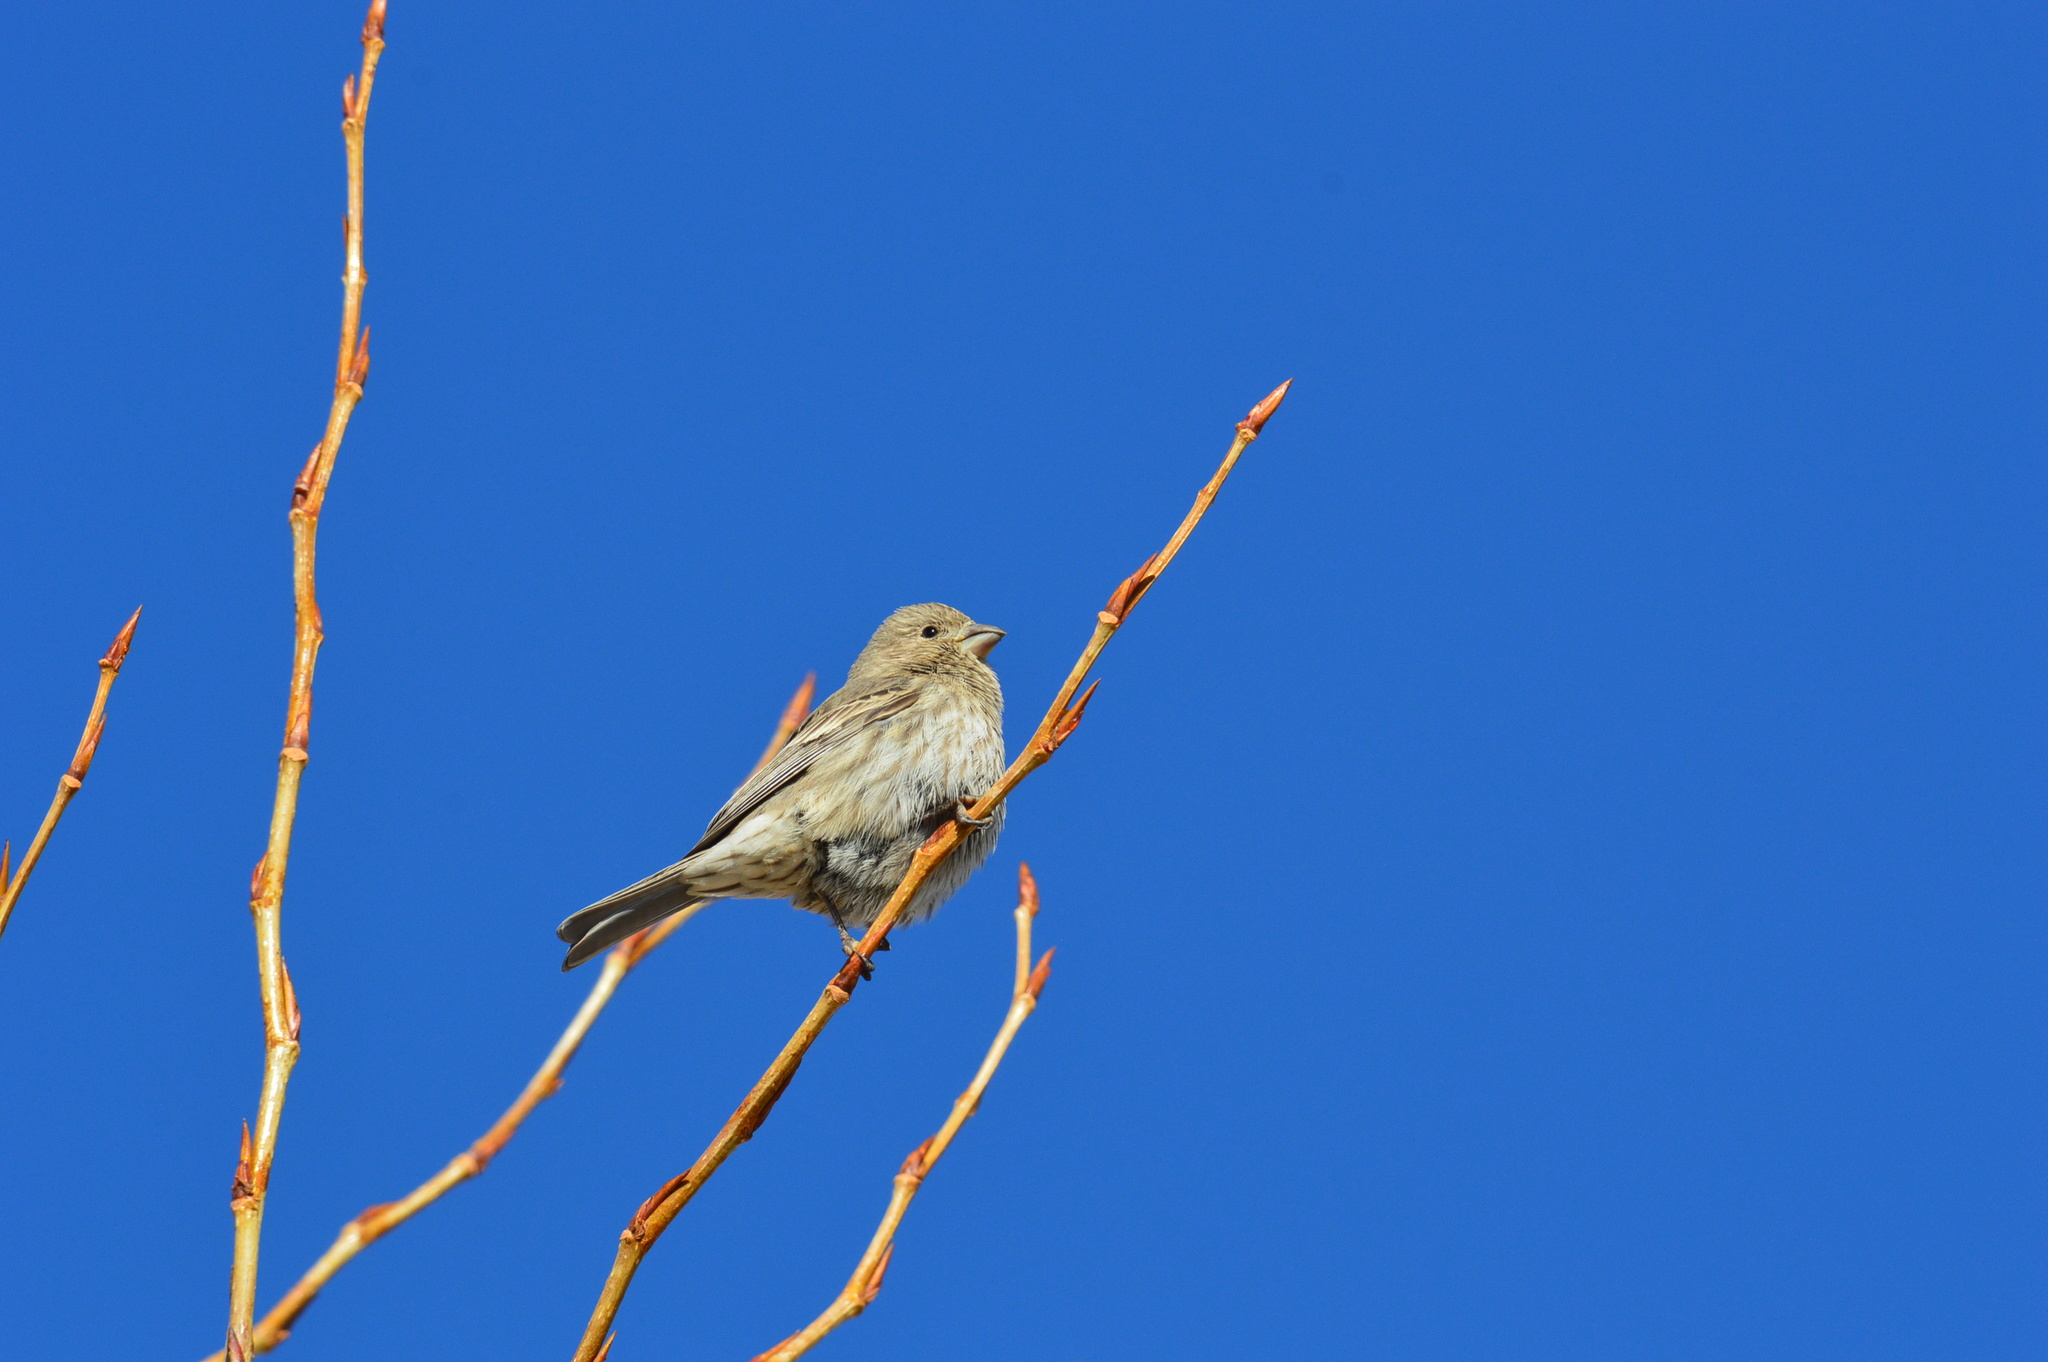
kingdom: Animalia
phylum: Chordata
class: Aves
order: Passeriformes
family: Fringillidae
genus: Haemorhous
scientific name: Haemorhous mexicanus
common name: House finch
